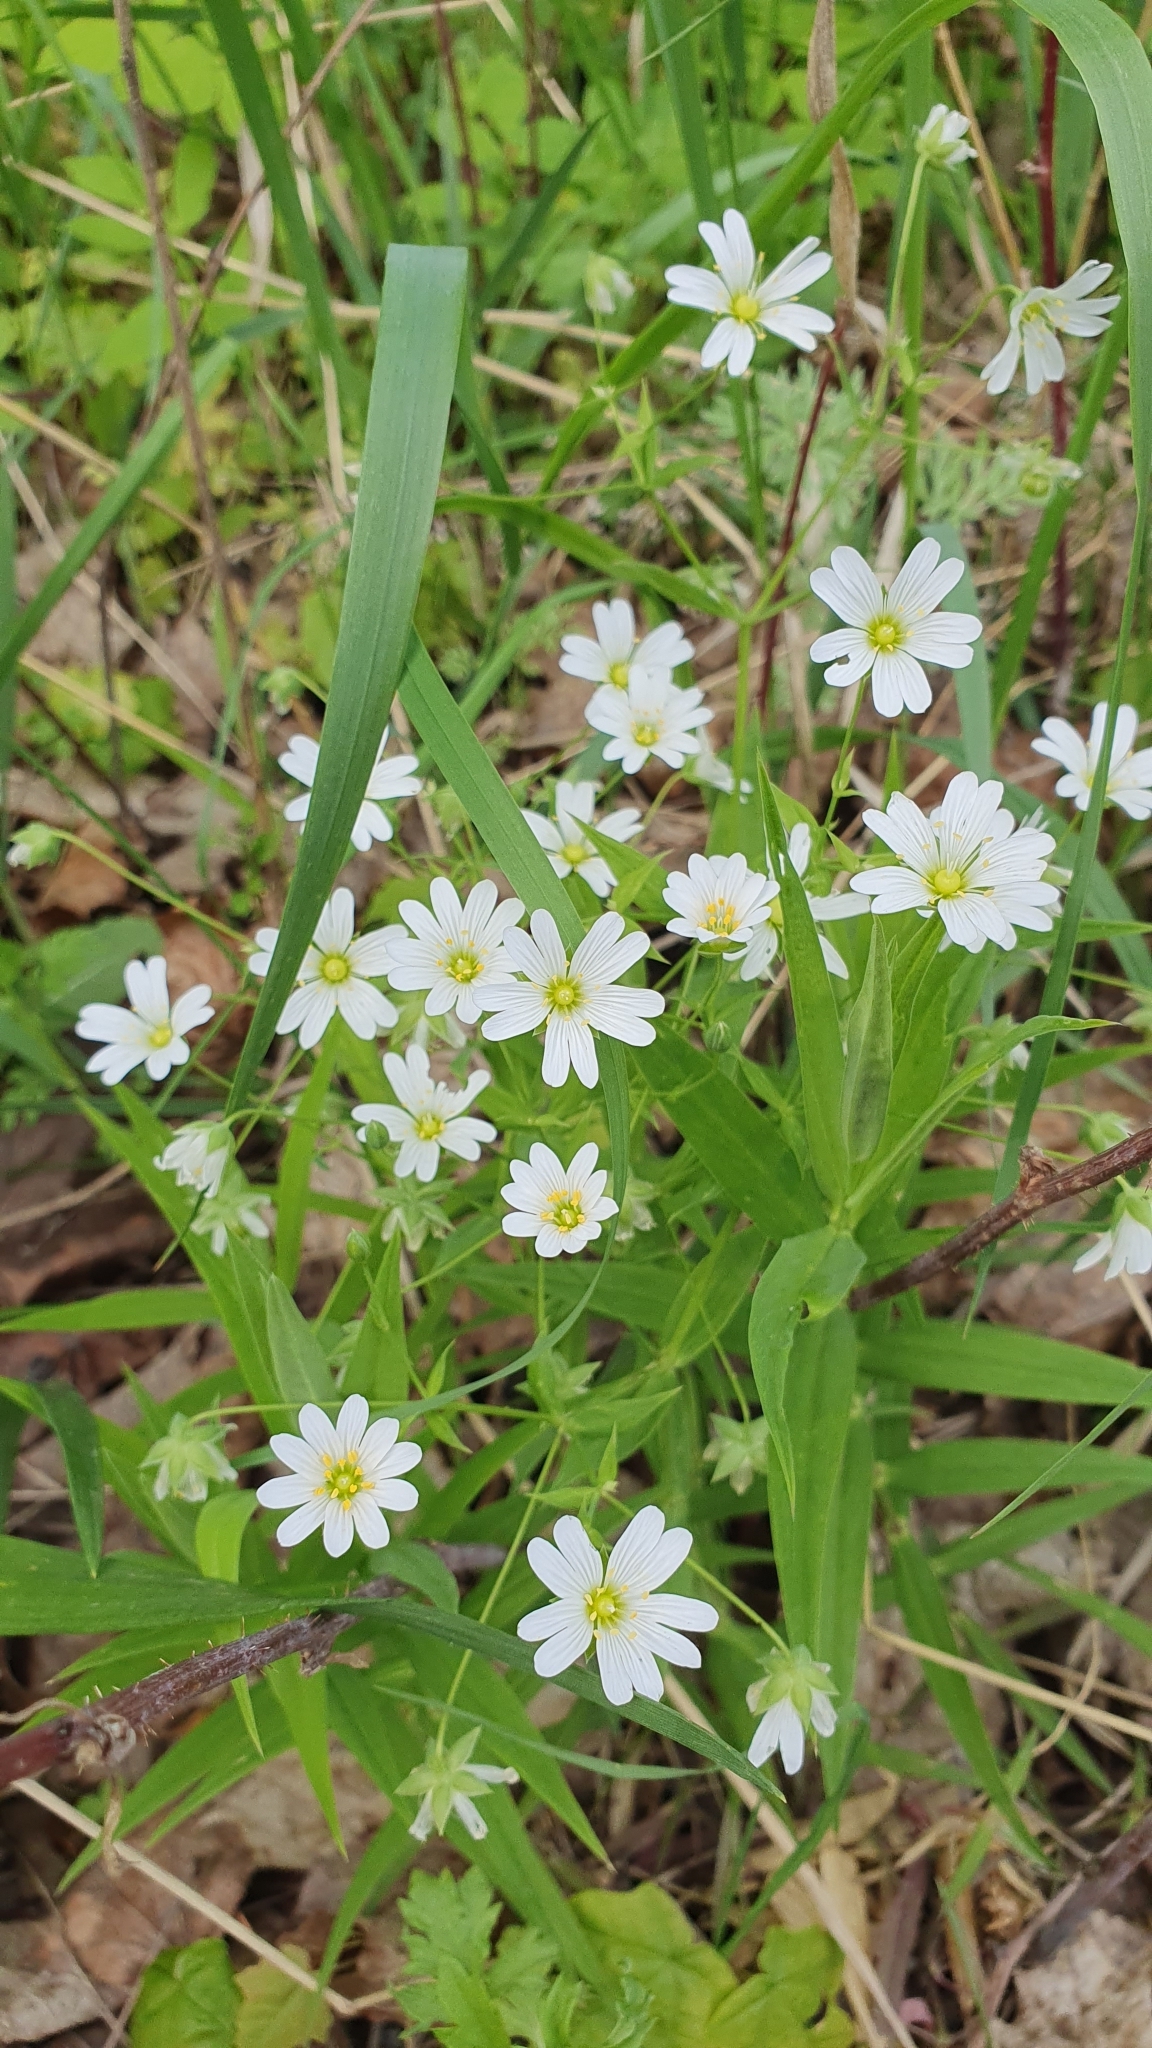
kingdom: Plantae
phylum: Tracheophyta
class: Magnoliopsida
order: Caryophyllales
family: Caryophyllaceae
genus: Rabelera
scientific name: Rabelera holostea
